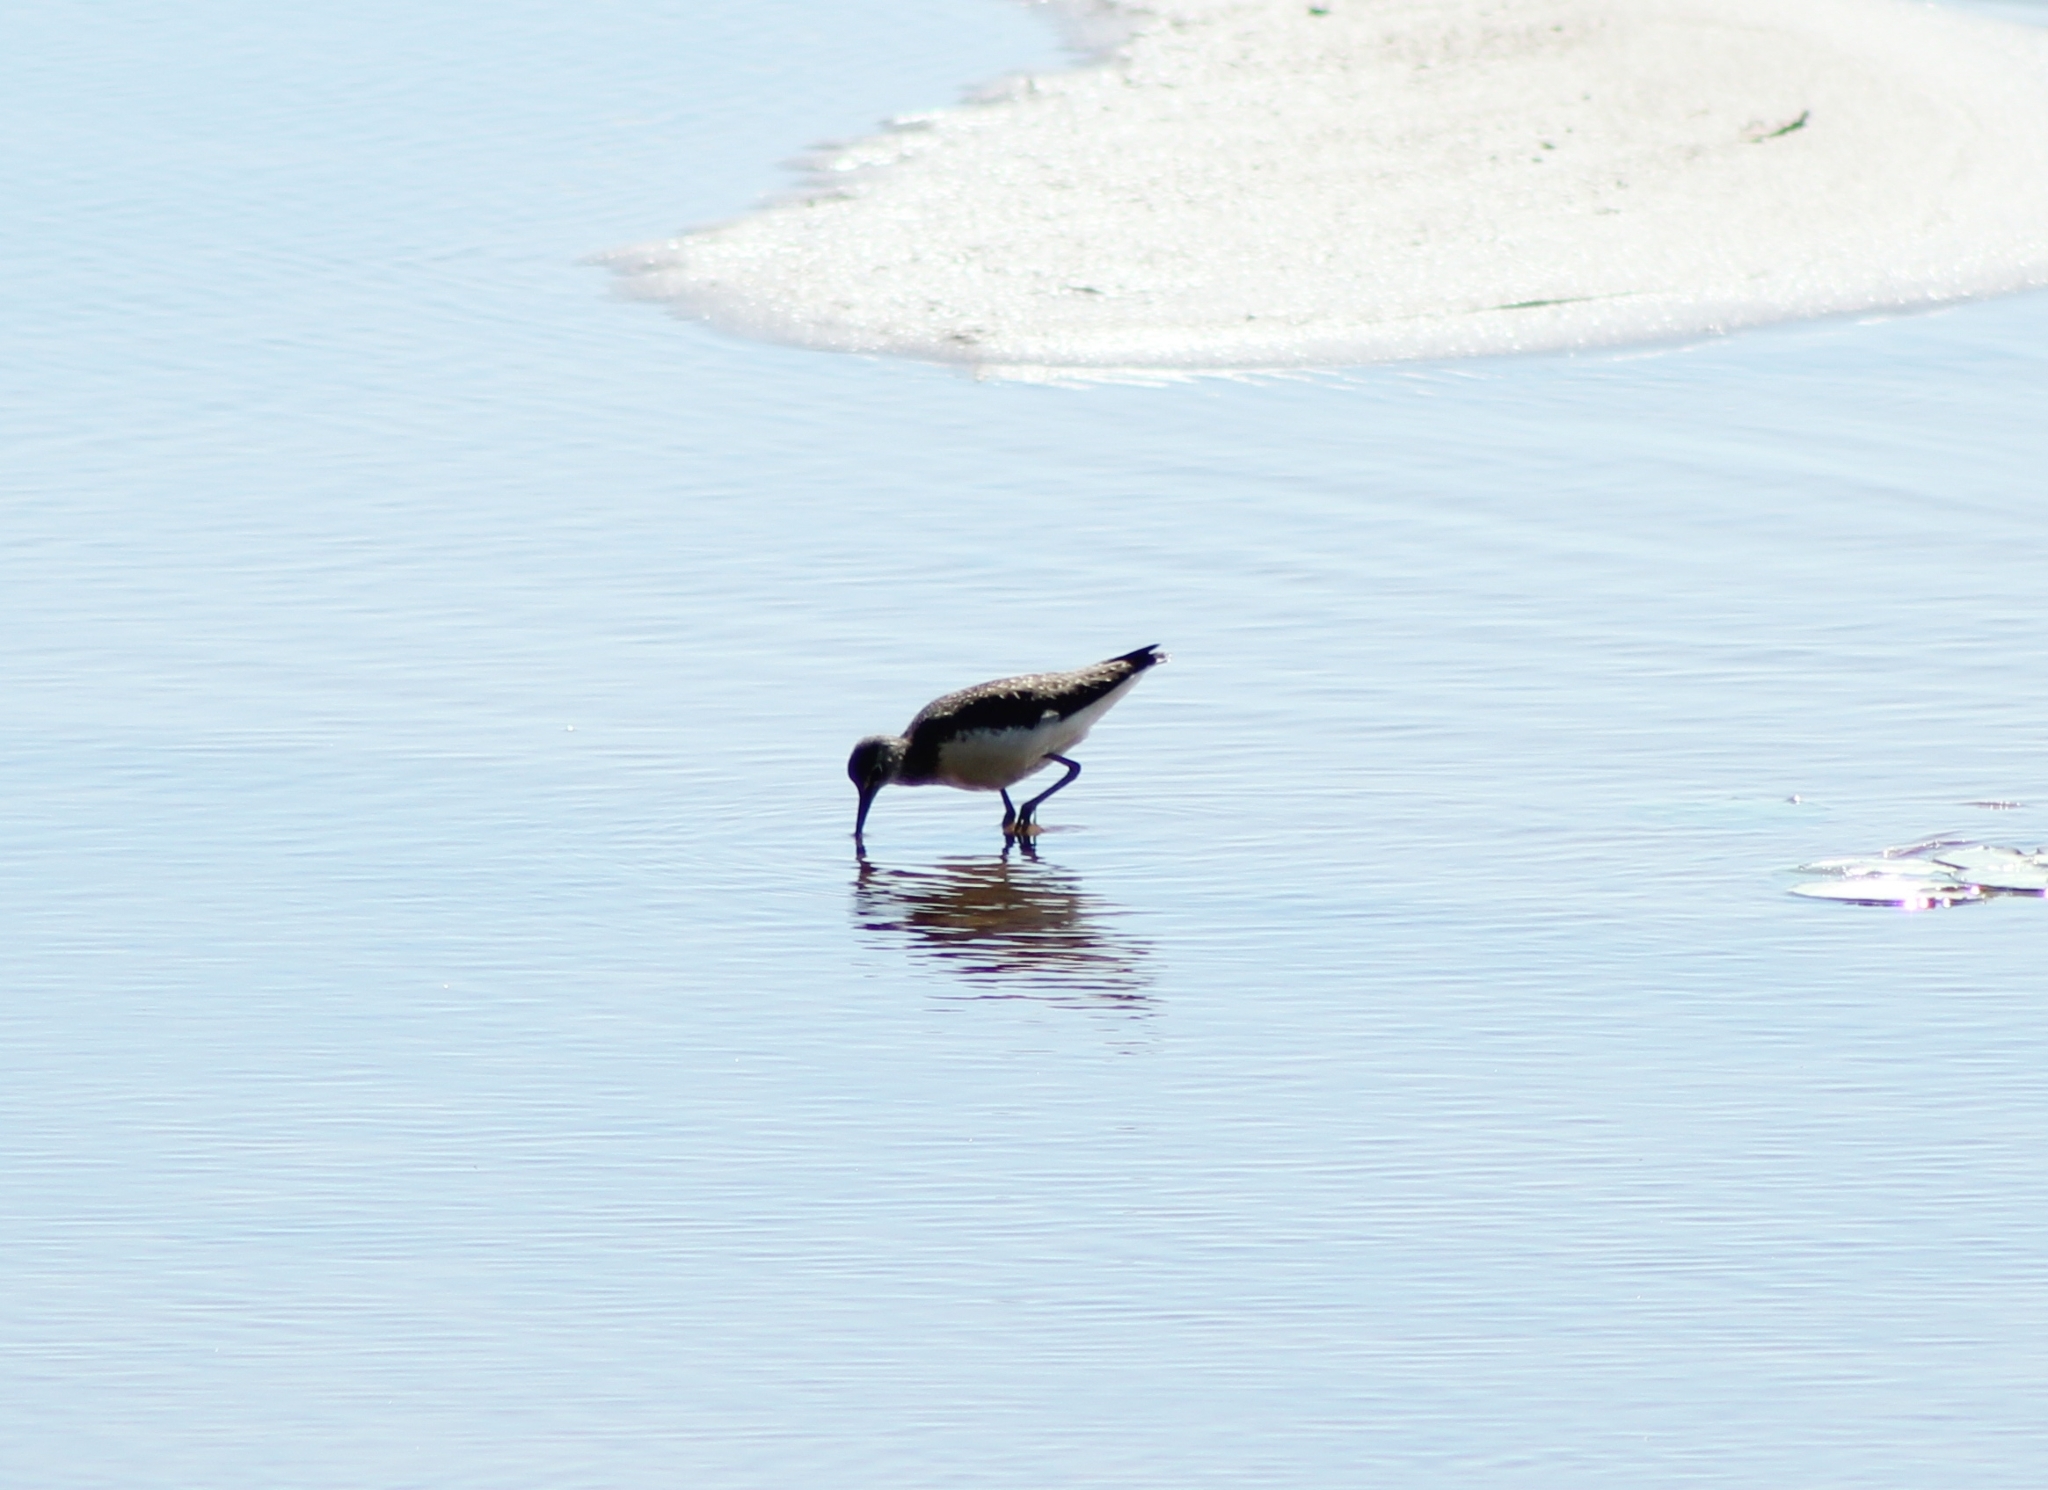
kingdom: Animalia
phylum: Chordata
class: Aves
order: Charadriiformes
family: Scolopacidae
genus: Tringa
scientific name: Tringa ochropus
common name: Green sandpiper
